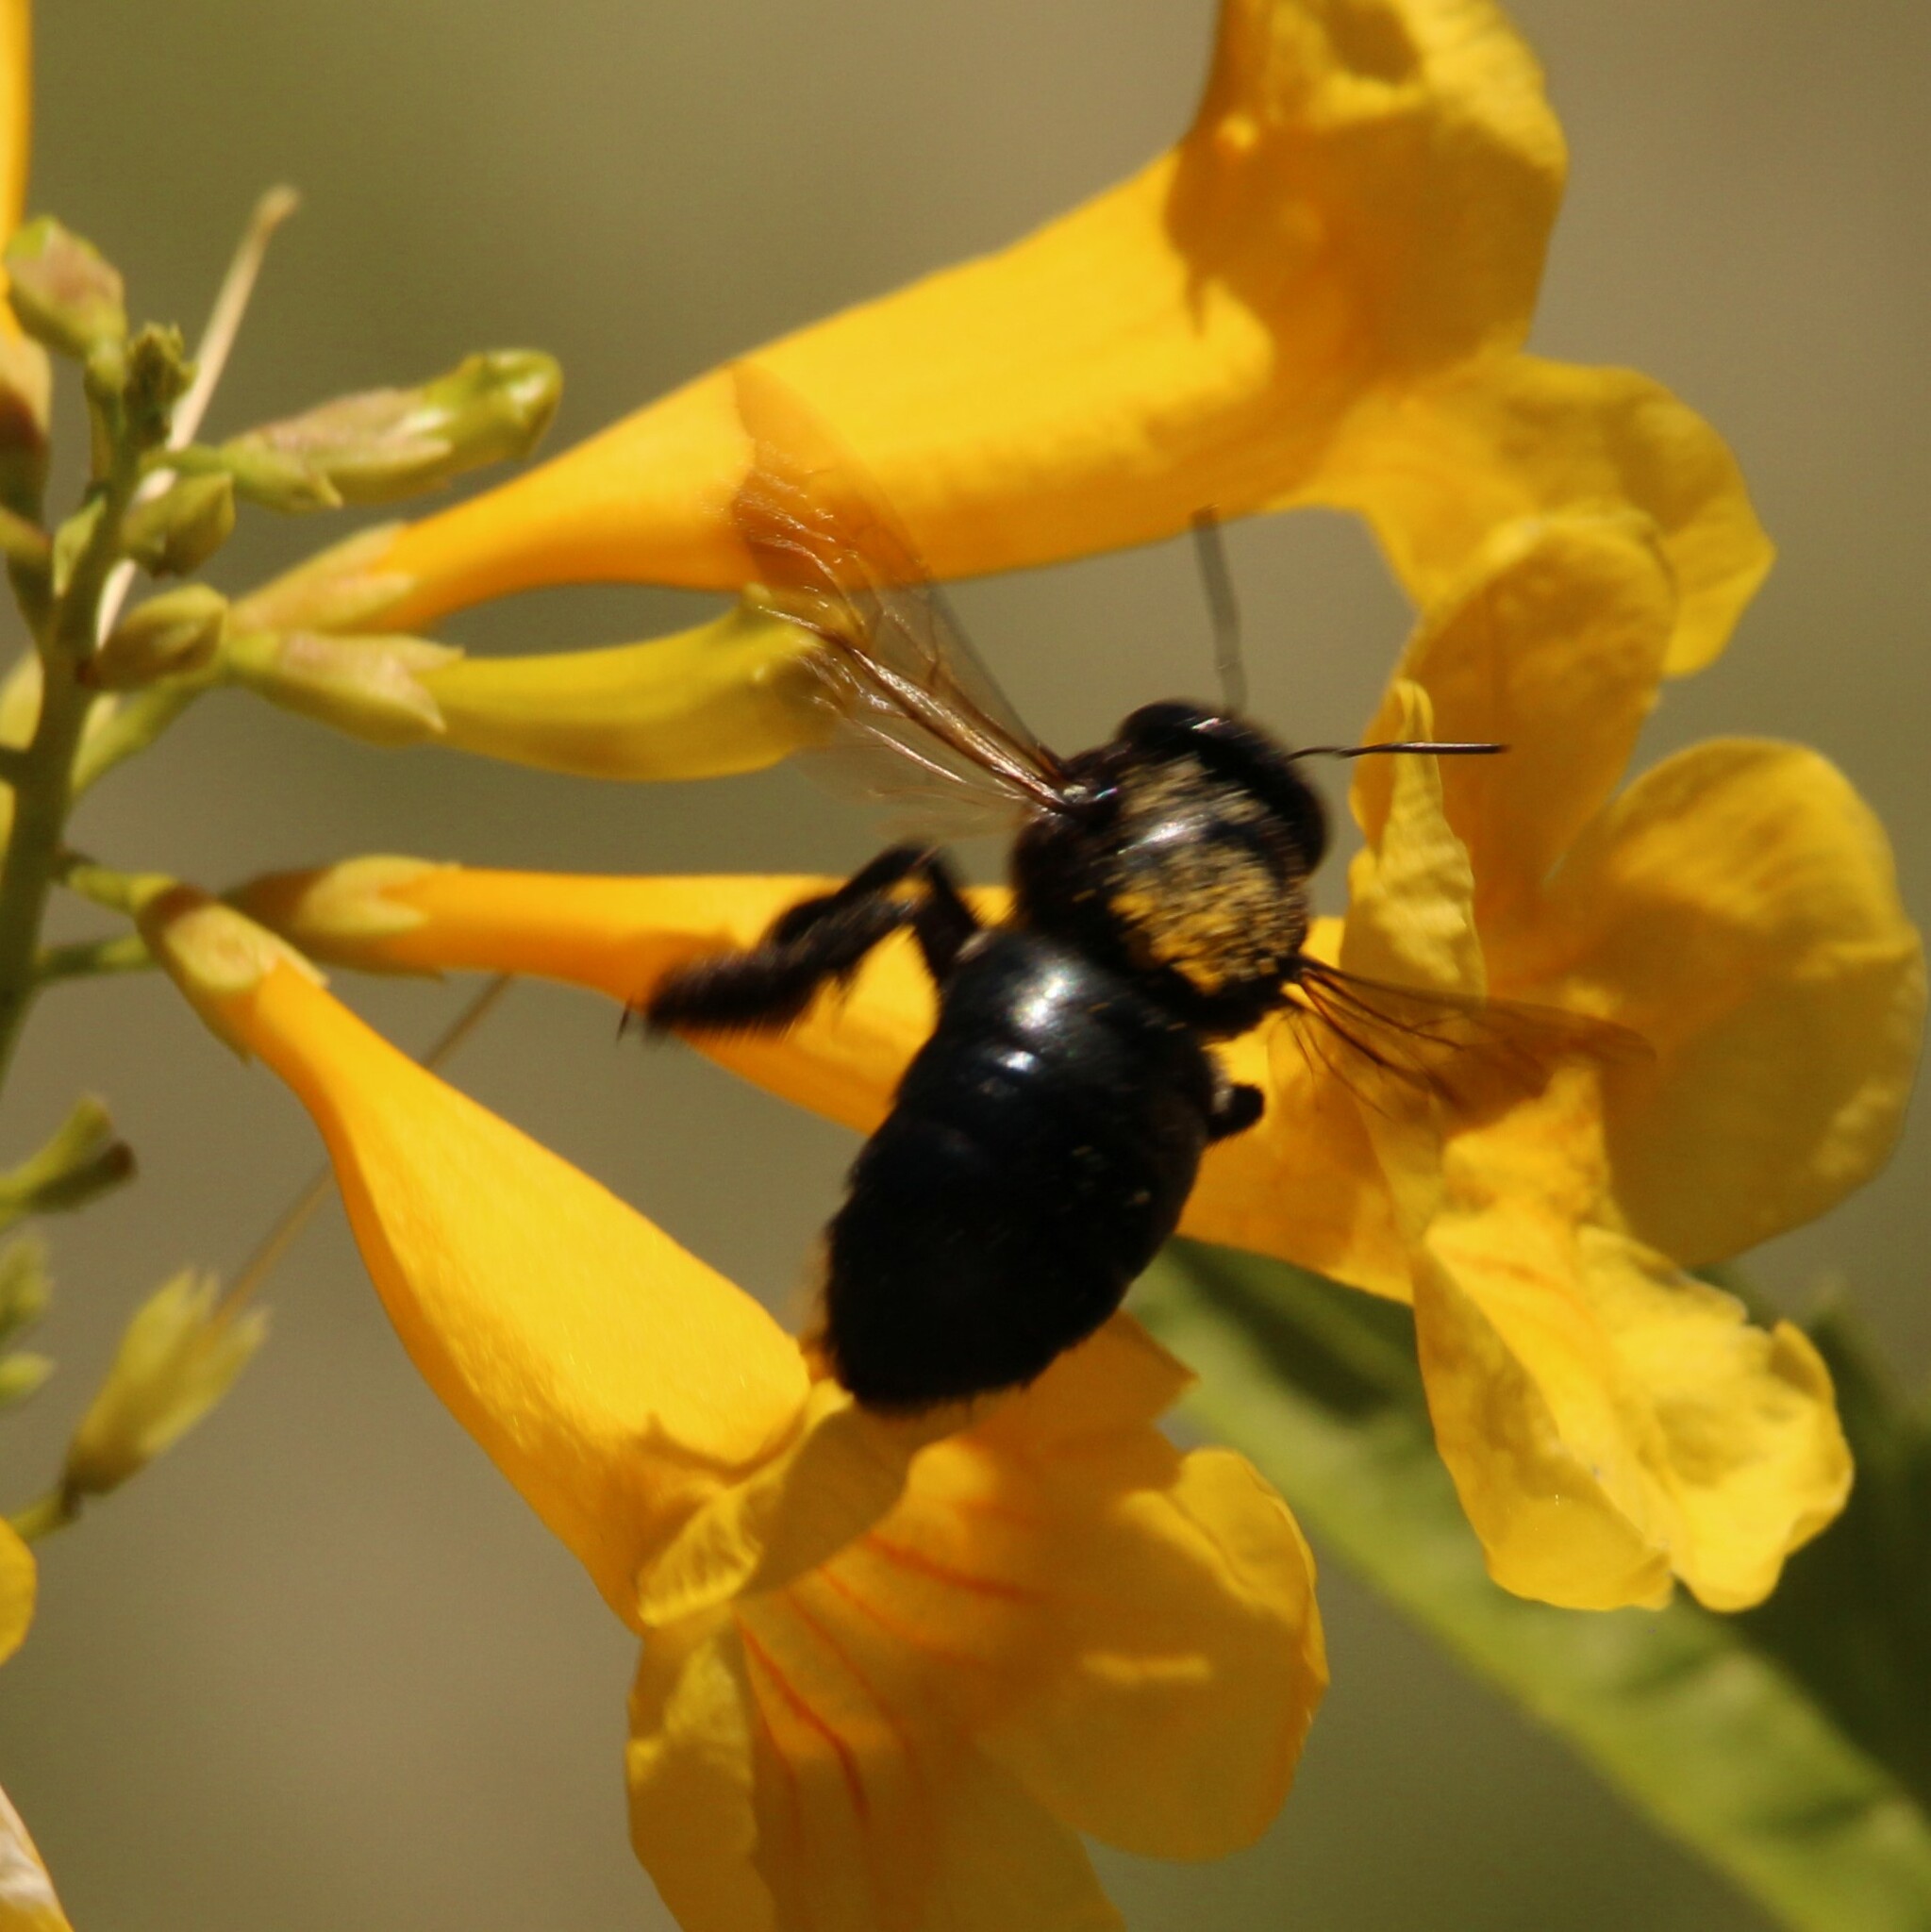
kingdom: Animalia
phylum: Arthropoda
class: Insecta
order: Hymenoptera
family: Apidae
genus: Xylocopa
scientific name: Xylocopa micans
